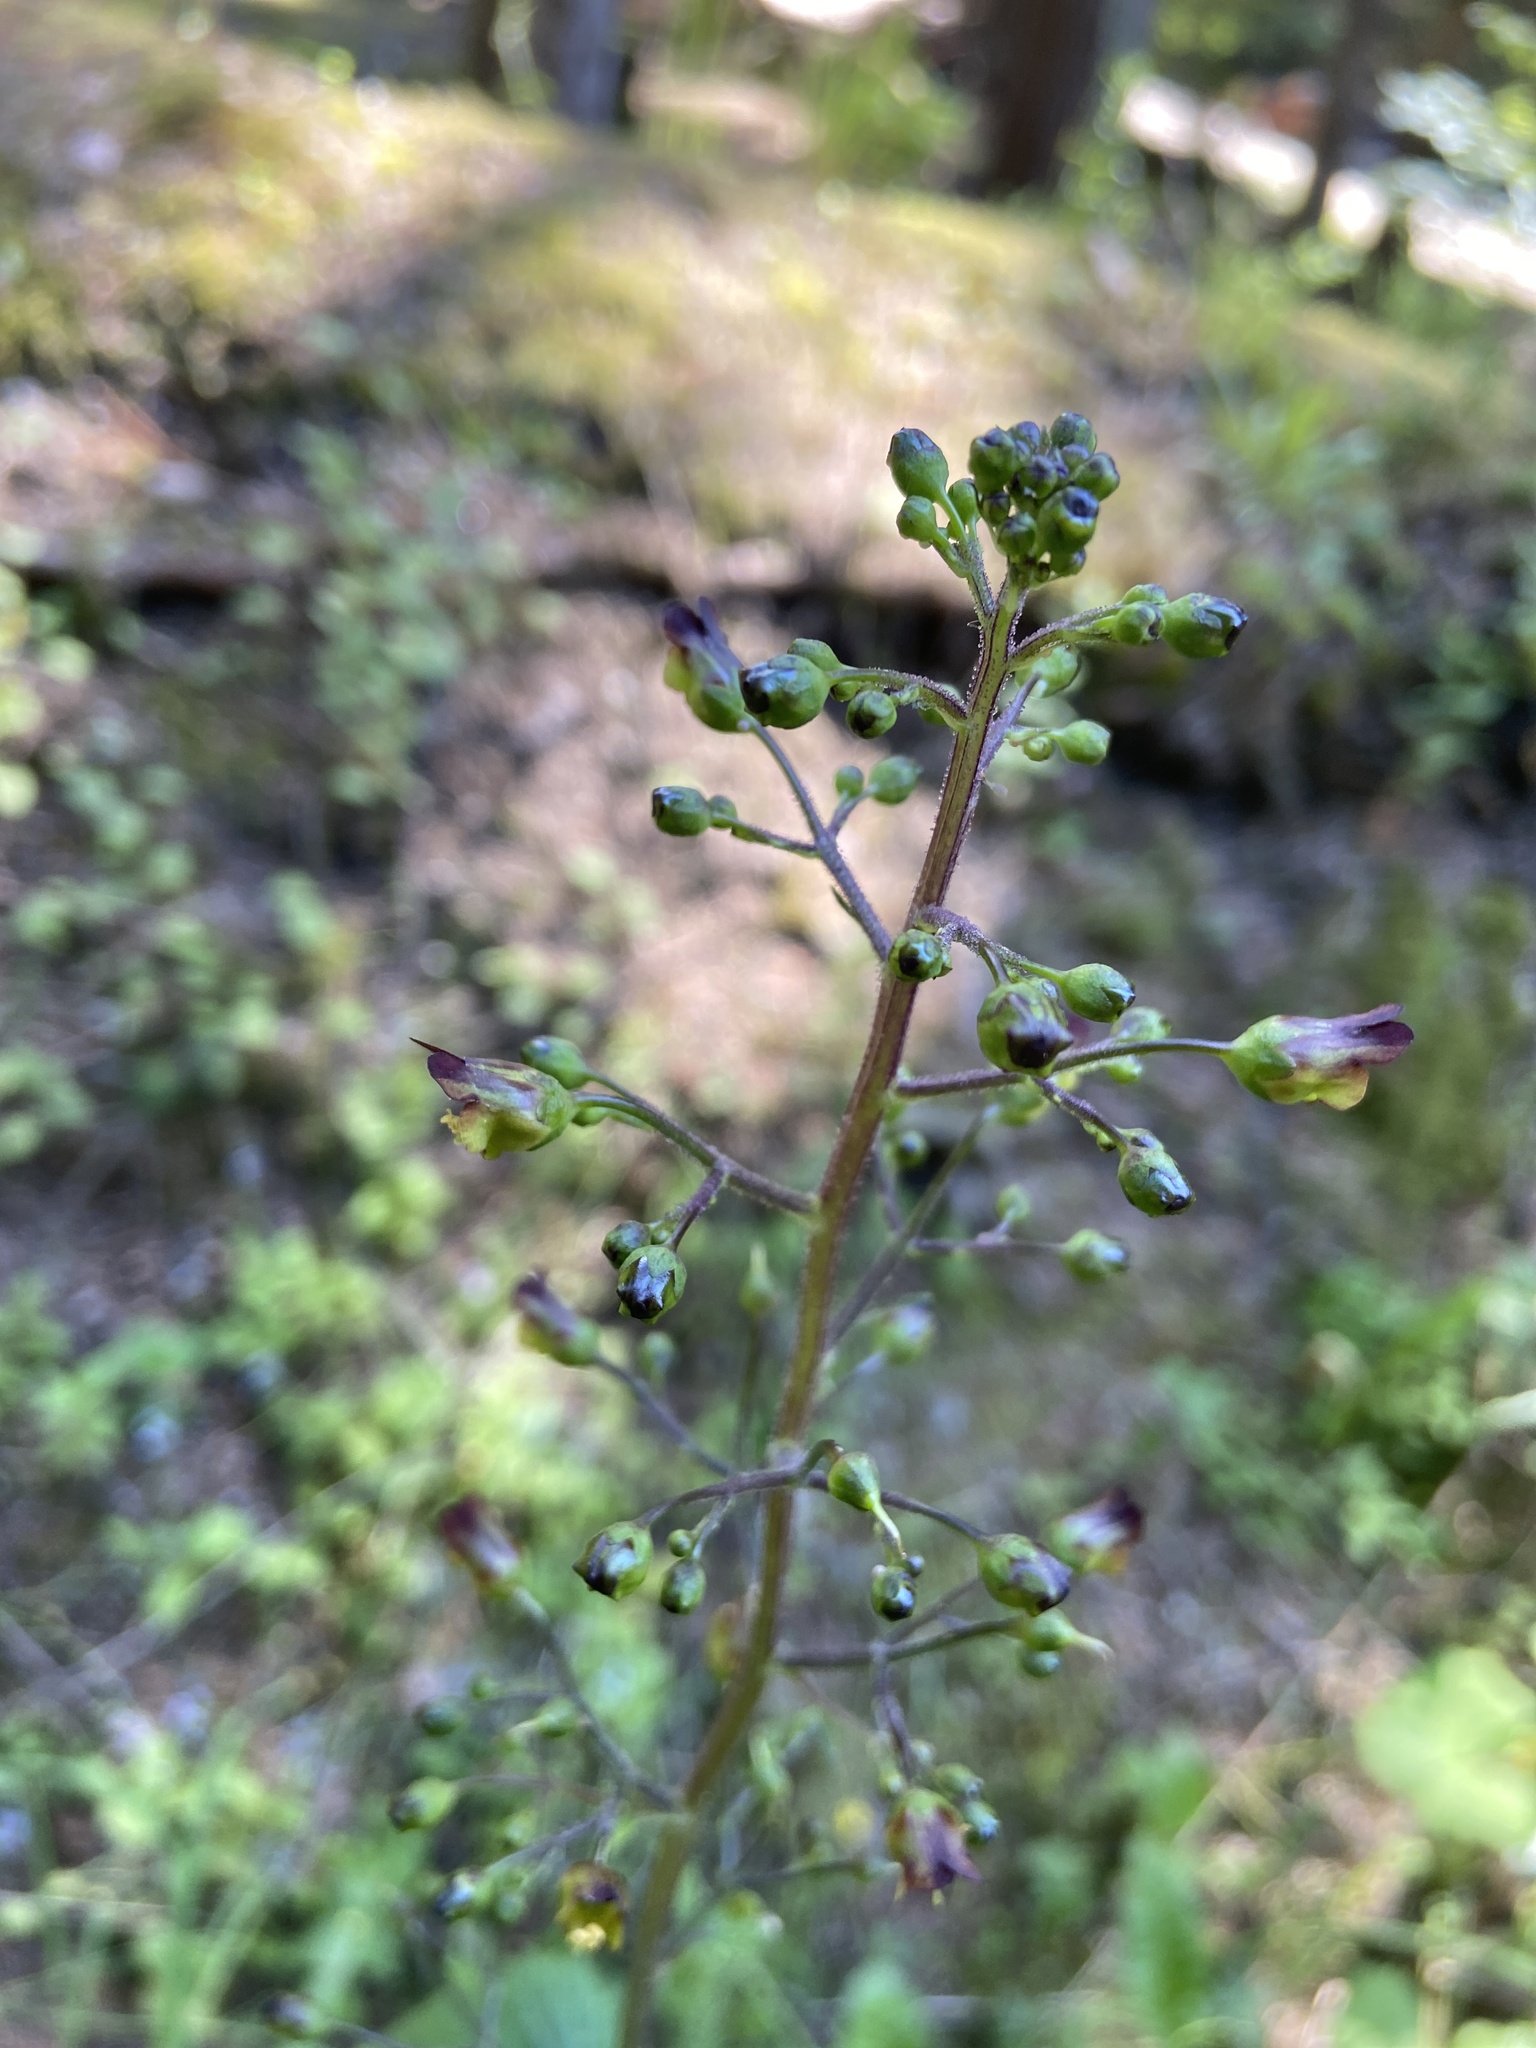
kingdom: Plantae
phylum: Tracheophyta
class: Magnoliopsida
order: Lamiales
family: Scrophulariaceae
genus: Scrophularia
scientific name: Scrophularia nodosa
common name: Common figwort
